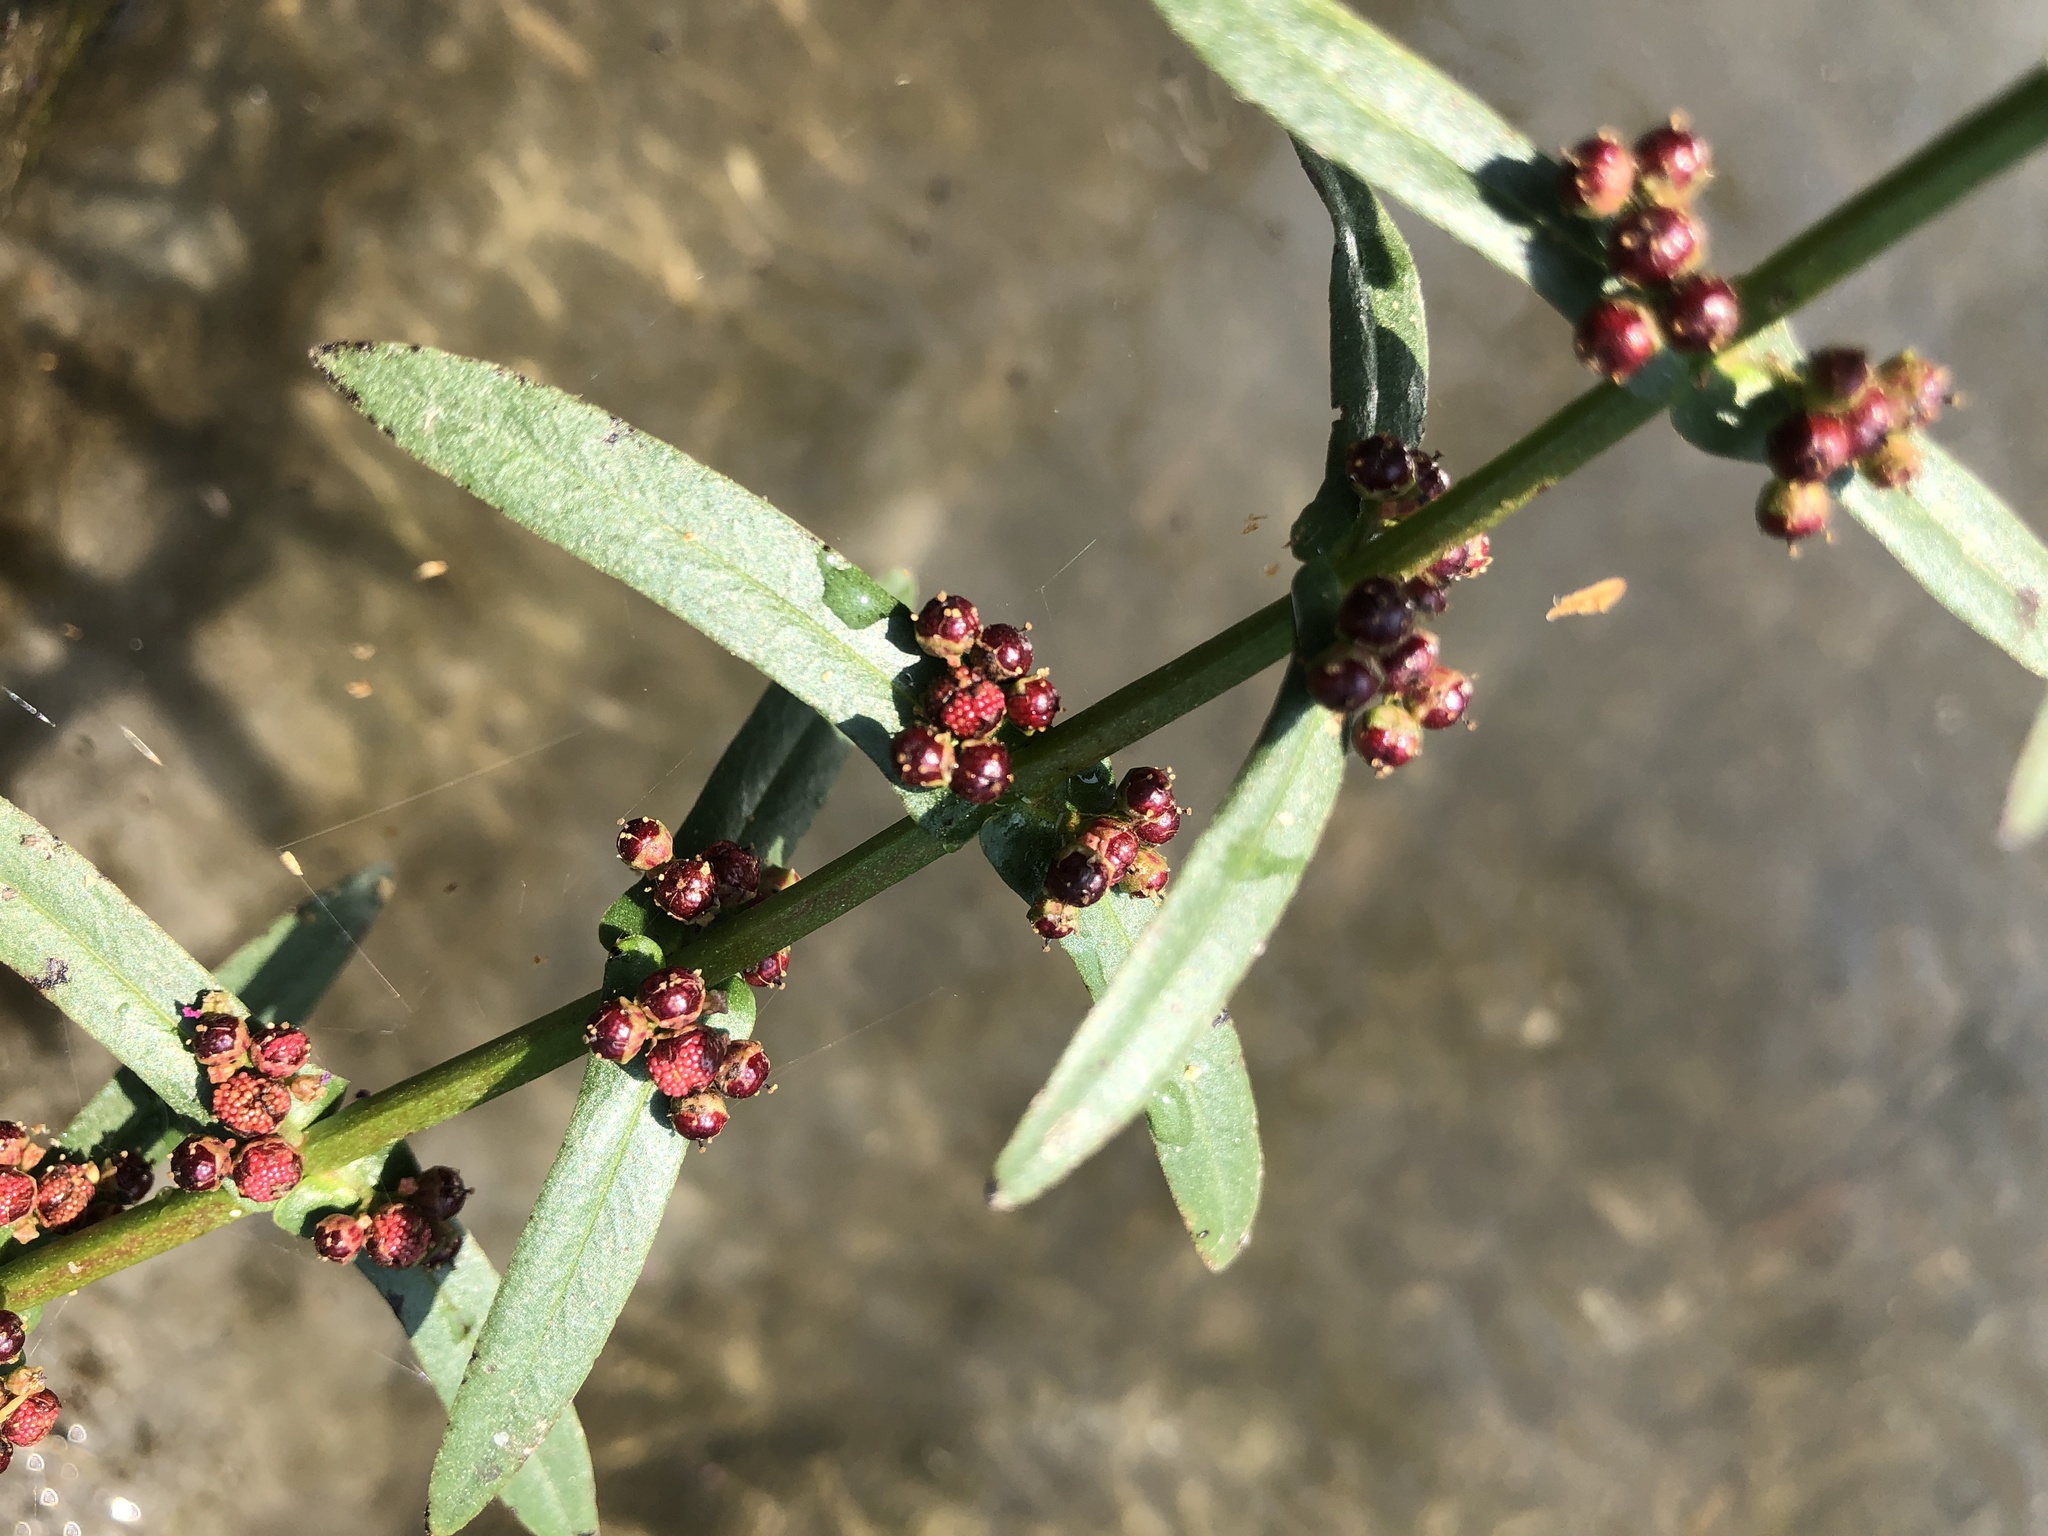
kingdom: Plantae
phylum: Tracheophyta
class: Magnoliopsida
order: Myrtales
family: Lythraceae
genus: Ammannia
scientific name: Ammannia coccinea
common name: Valley redstem
